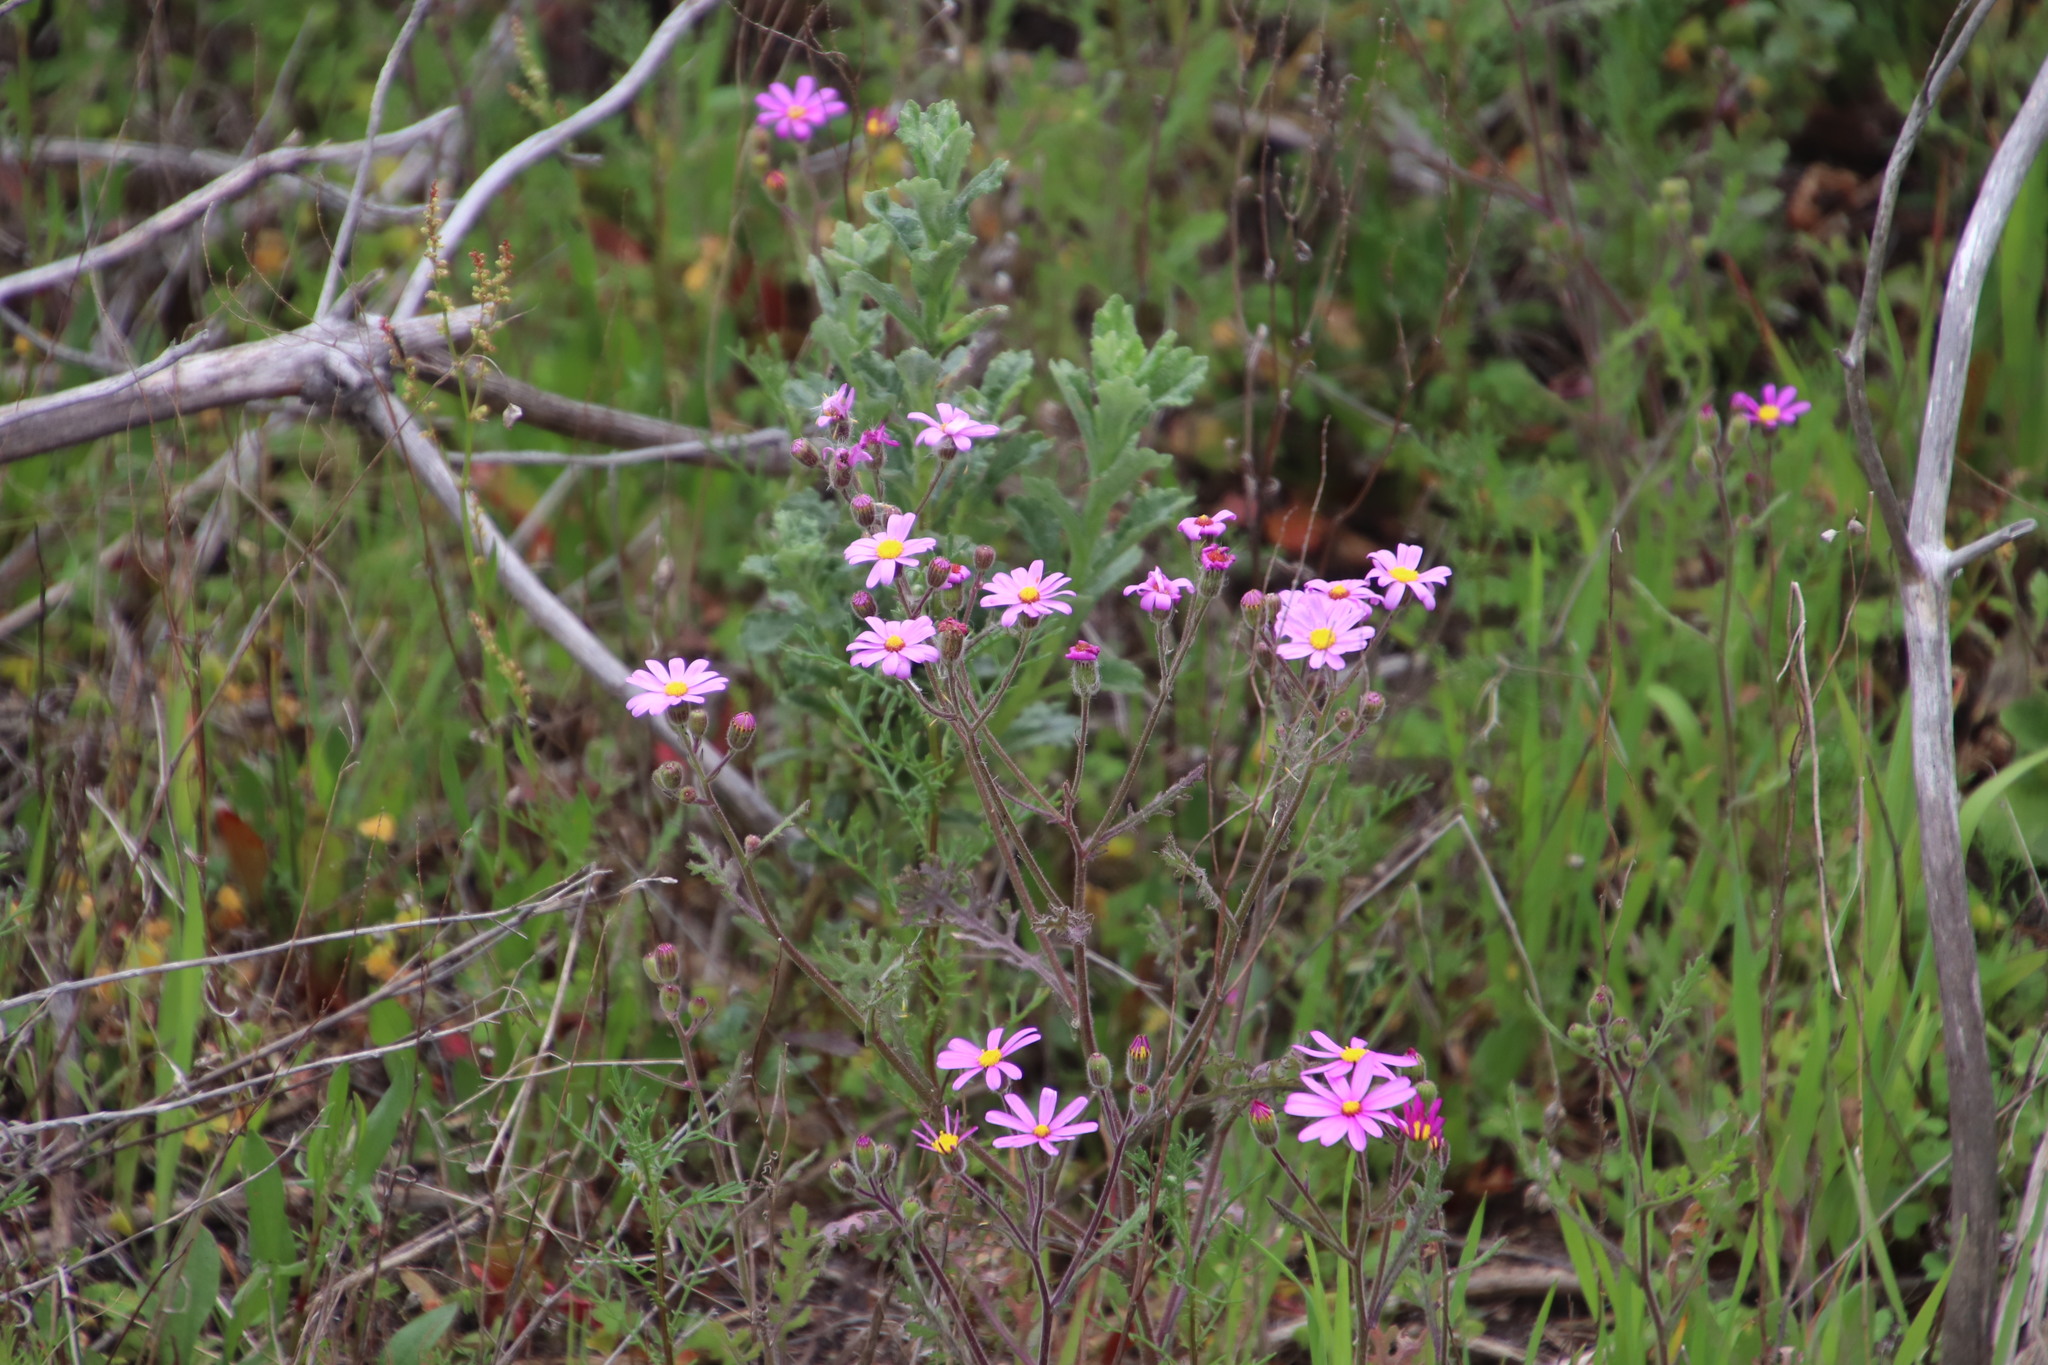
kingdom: Plantae
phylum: Tracheophyta
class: Magnoliopsida
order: Asterales
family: Asteraceae
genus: Senecio
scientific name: Senecio arenarius
